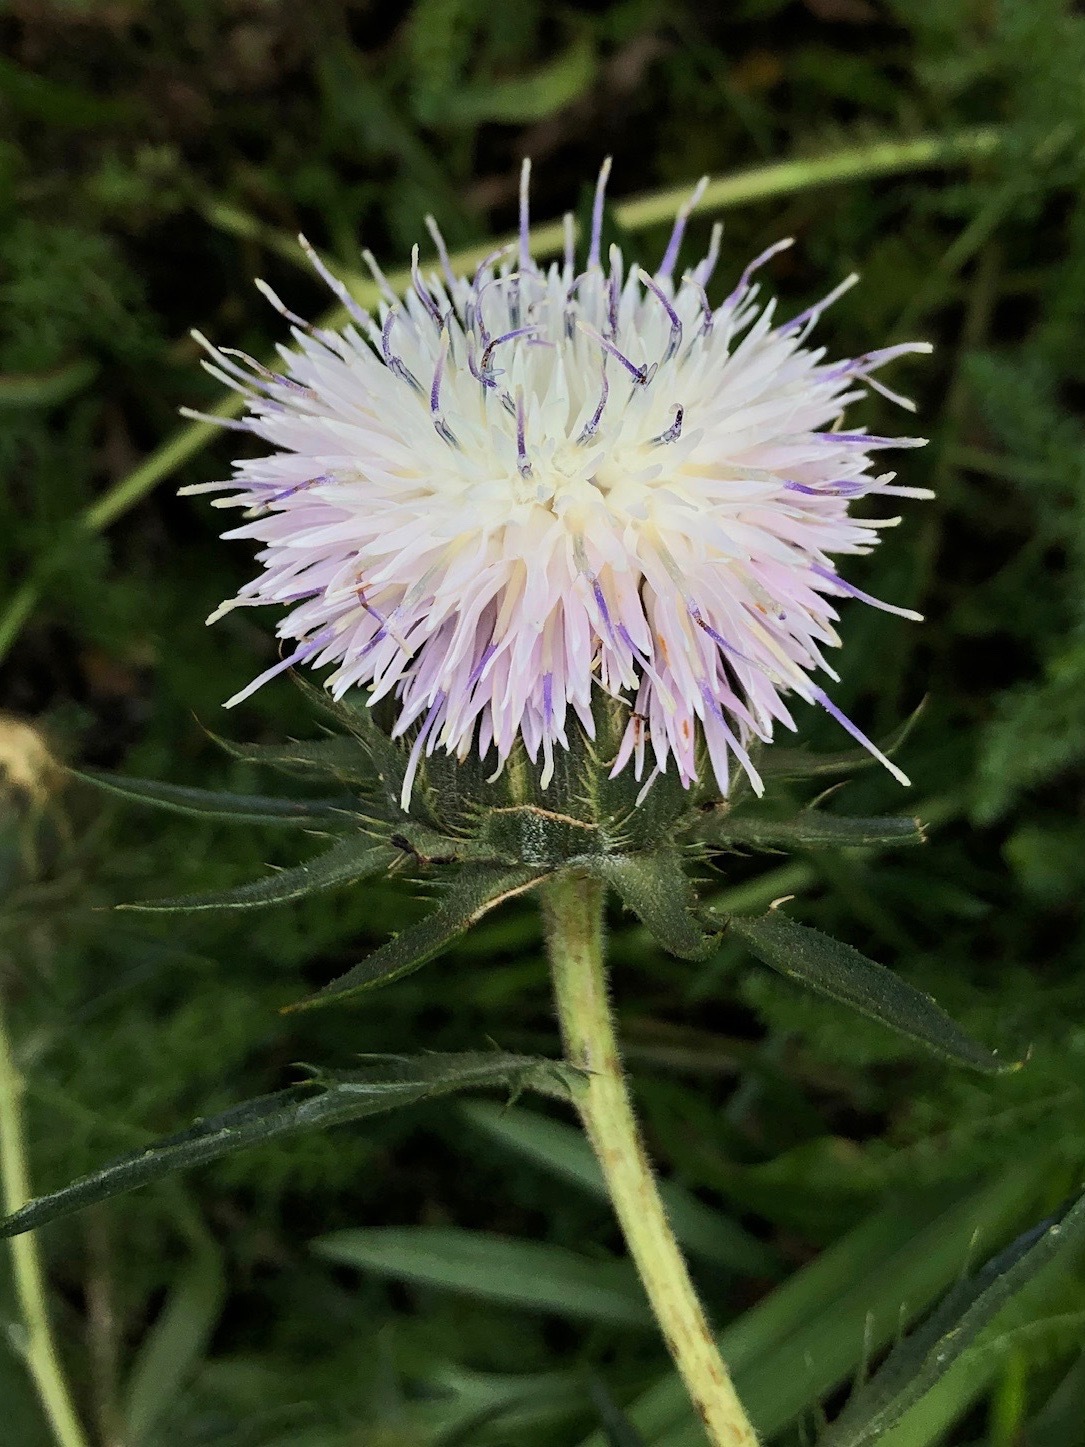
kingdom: Plantae
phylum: Tracheophyta
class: Magnoliopsida
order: Asterales
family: Asteraceae
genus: Carduncellus
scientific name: Carduncellus dianius
